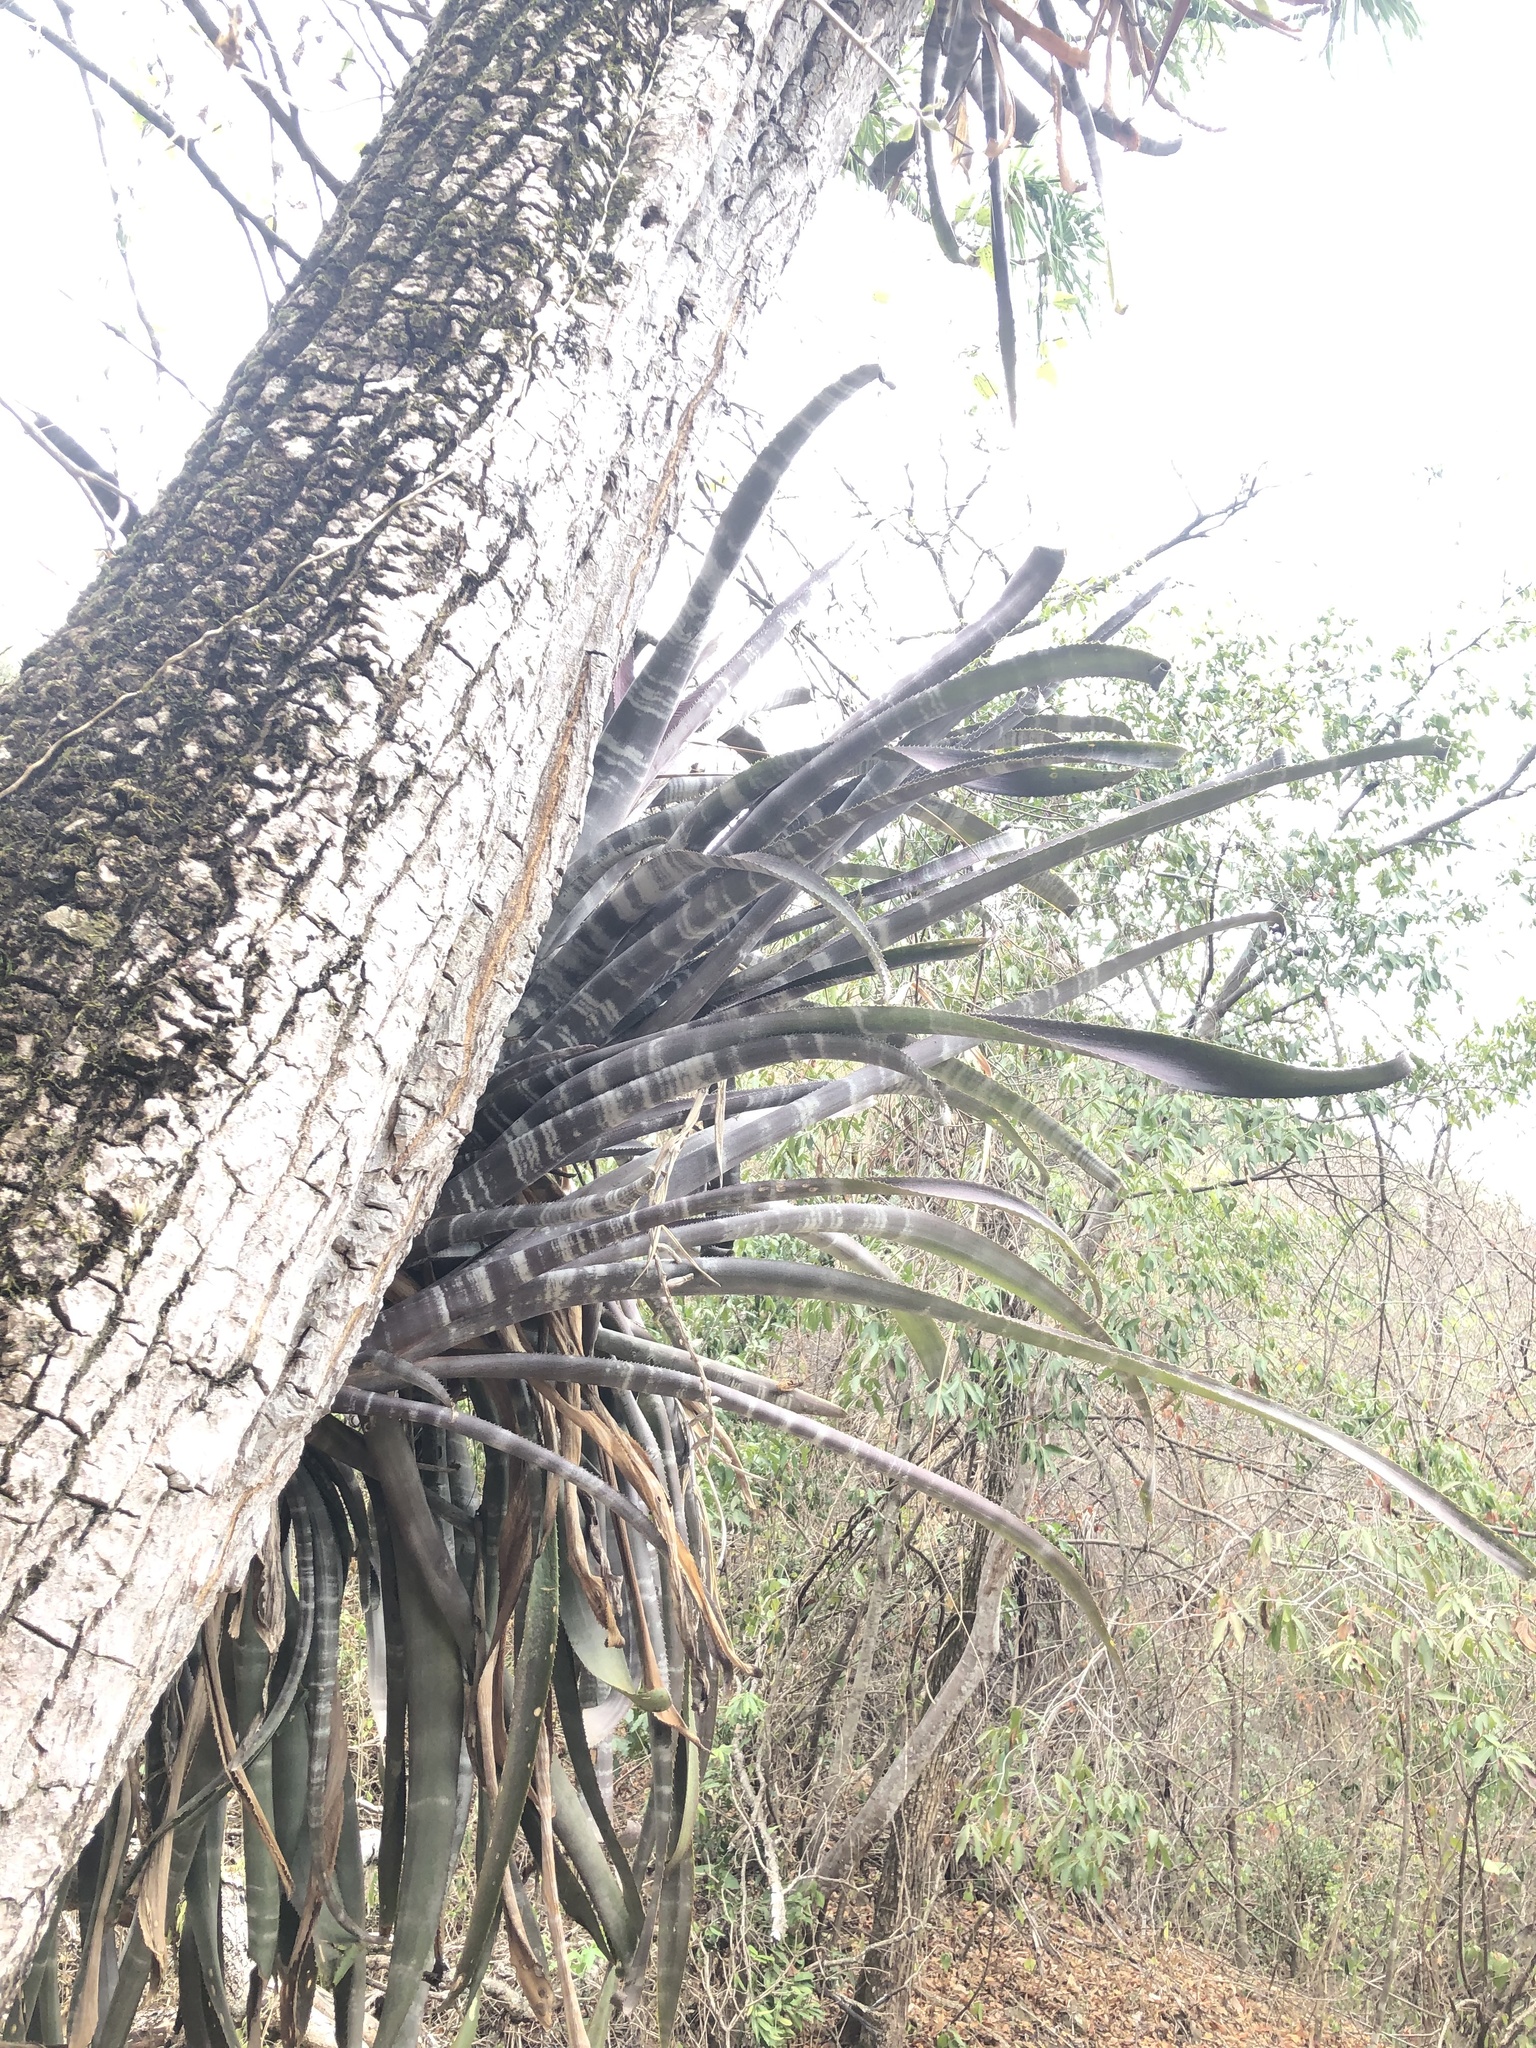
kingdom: Plantae
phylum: Tracheophyta
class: Liliopsida
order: Poales
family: Bromeliaceae
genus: Billbergia
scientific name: Billbergia pallidiflora
